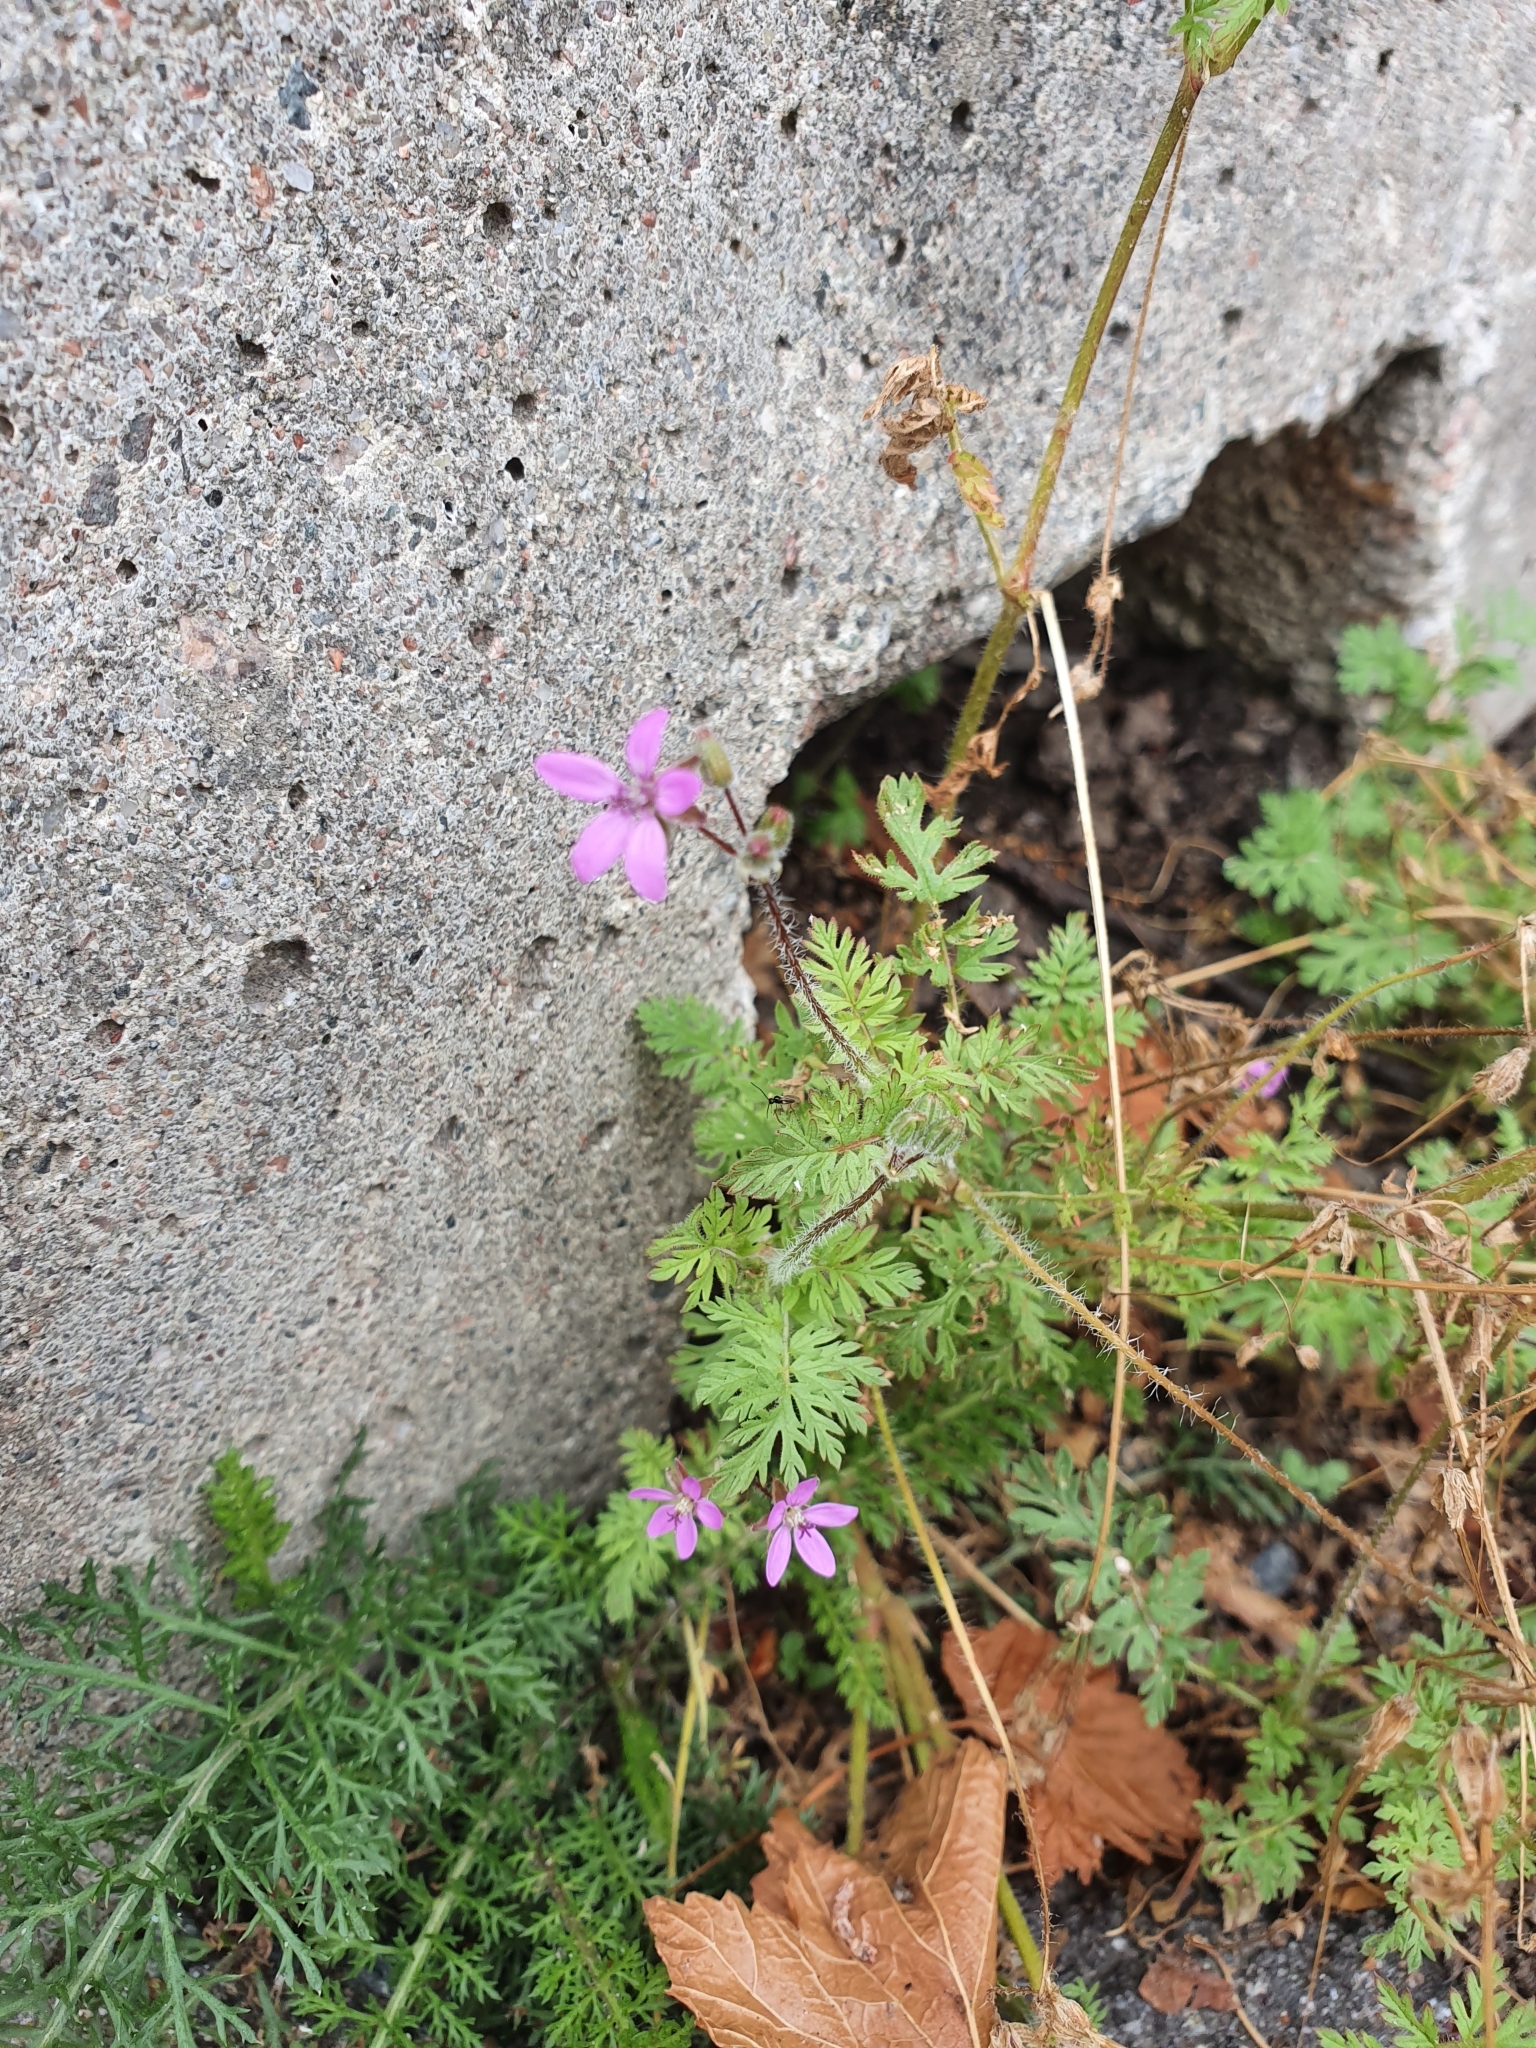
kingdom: Plantae
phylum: Tracheophyta
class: Magnoliopsida
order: Geraniales
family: Geraniaceae
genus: Erodium
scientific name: Erodium cicutarium
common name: Common stork's-bill
